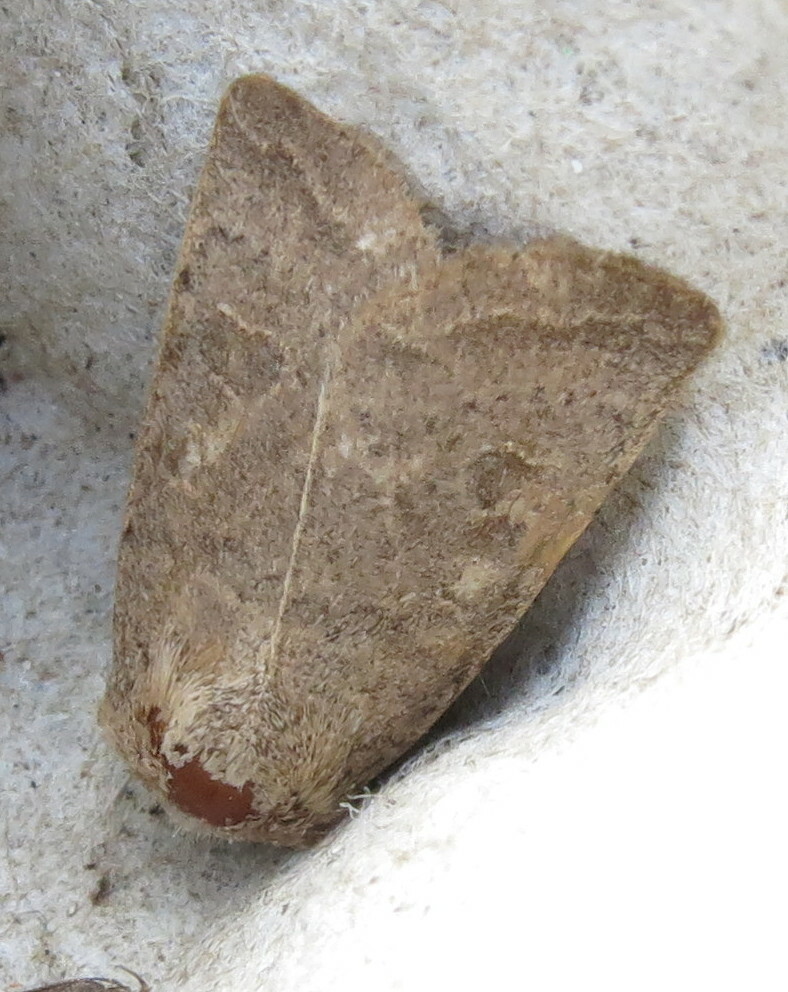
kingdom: Animalia
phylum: Arthropoda
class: Insecta
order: Lepidoptera
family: Noctuidae
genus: Hoplodrina
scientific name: Hoplodrina ambigua
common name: Vine's rustic
